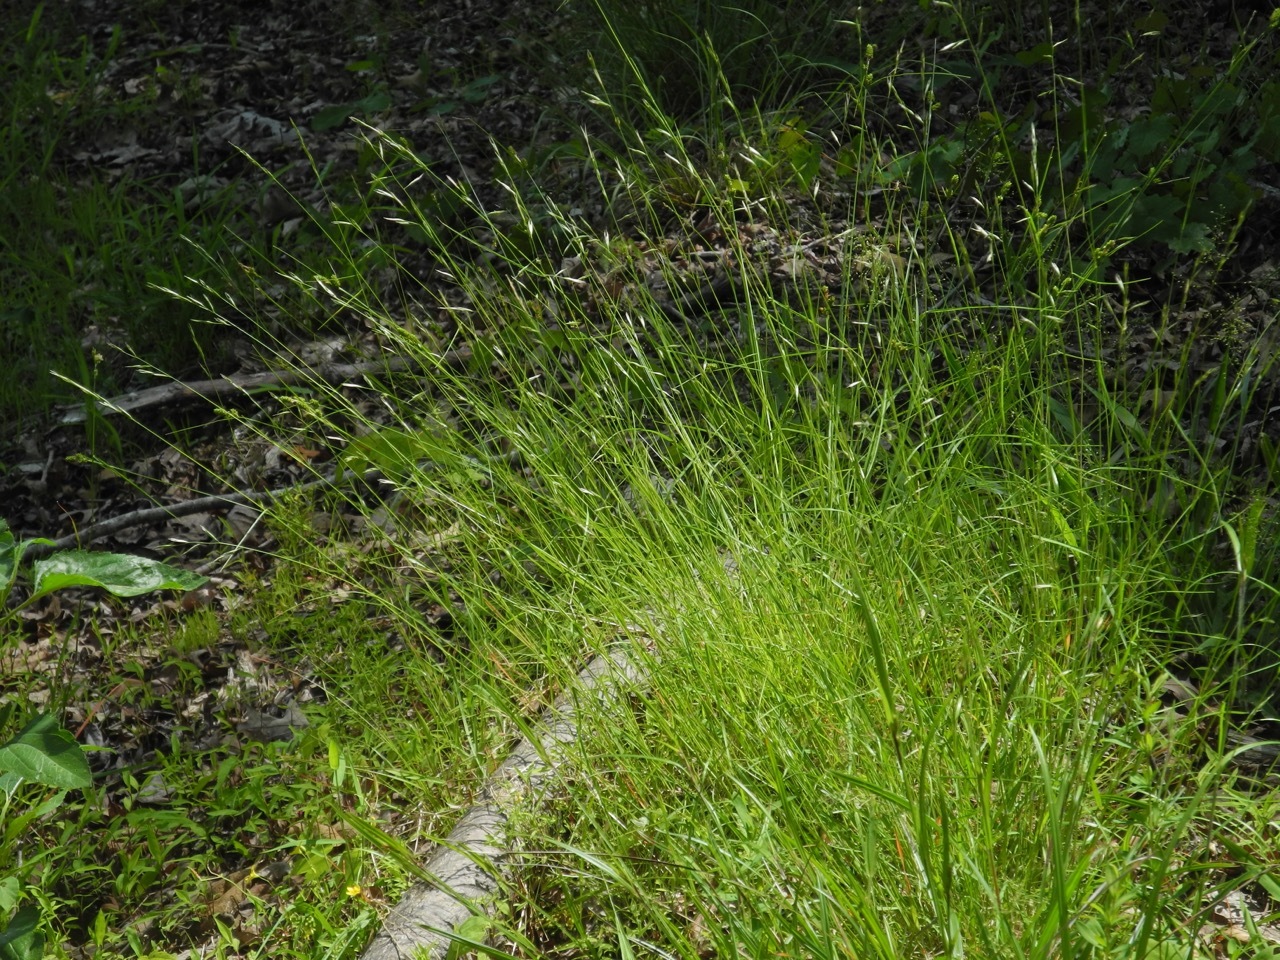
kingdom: Plantae
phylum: Tracheophyta
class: Liliopsida
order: Poales
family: Poaceae
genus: Danthonia
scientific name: Danthonia spicata
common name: Common wild oatgrass
